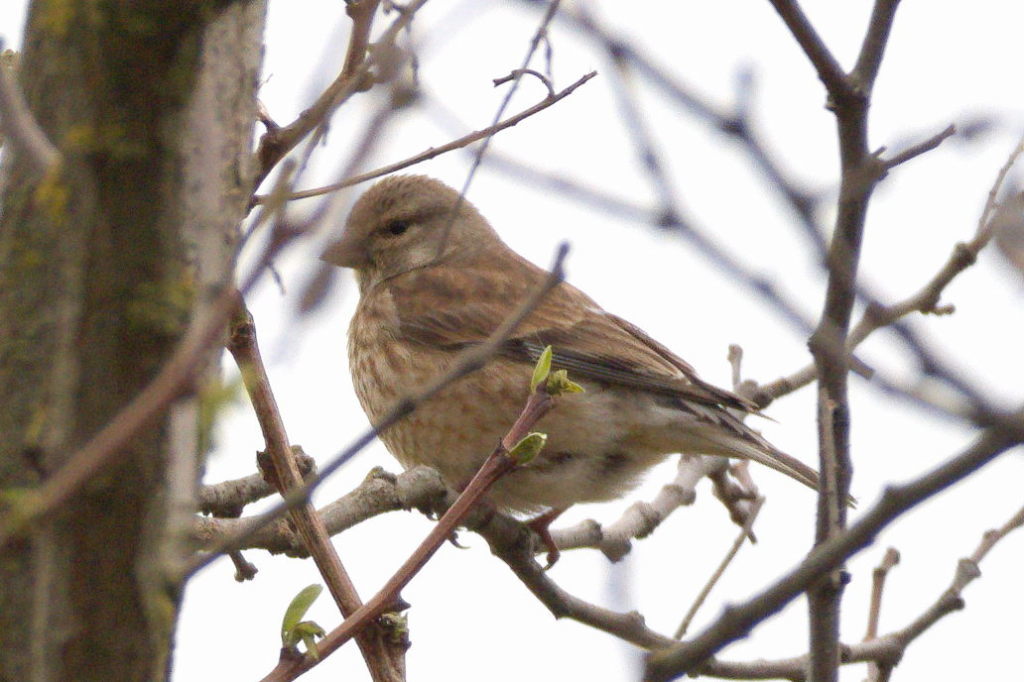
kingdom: Animalia
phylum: Chordata
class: Aves
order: Passeriformes
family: Fringillidae
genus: Linaria
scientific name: Linaria cannabina
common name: Common linnet
